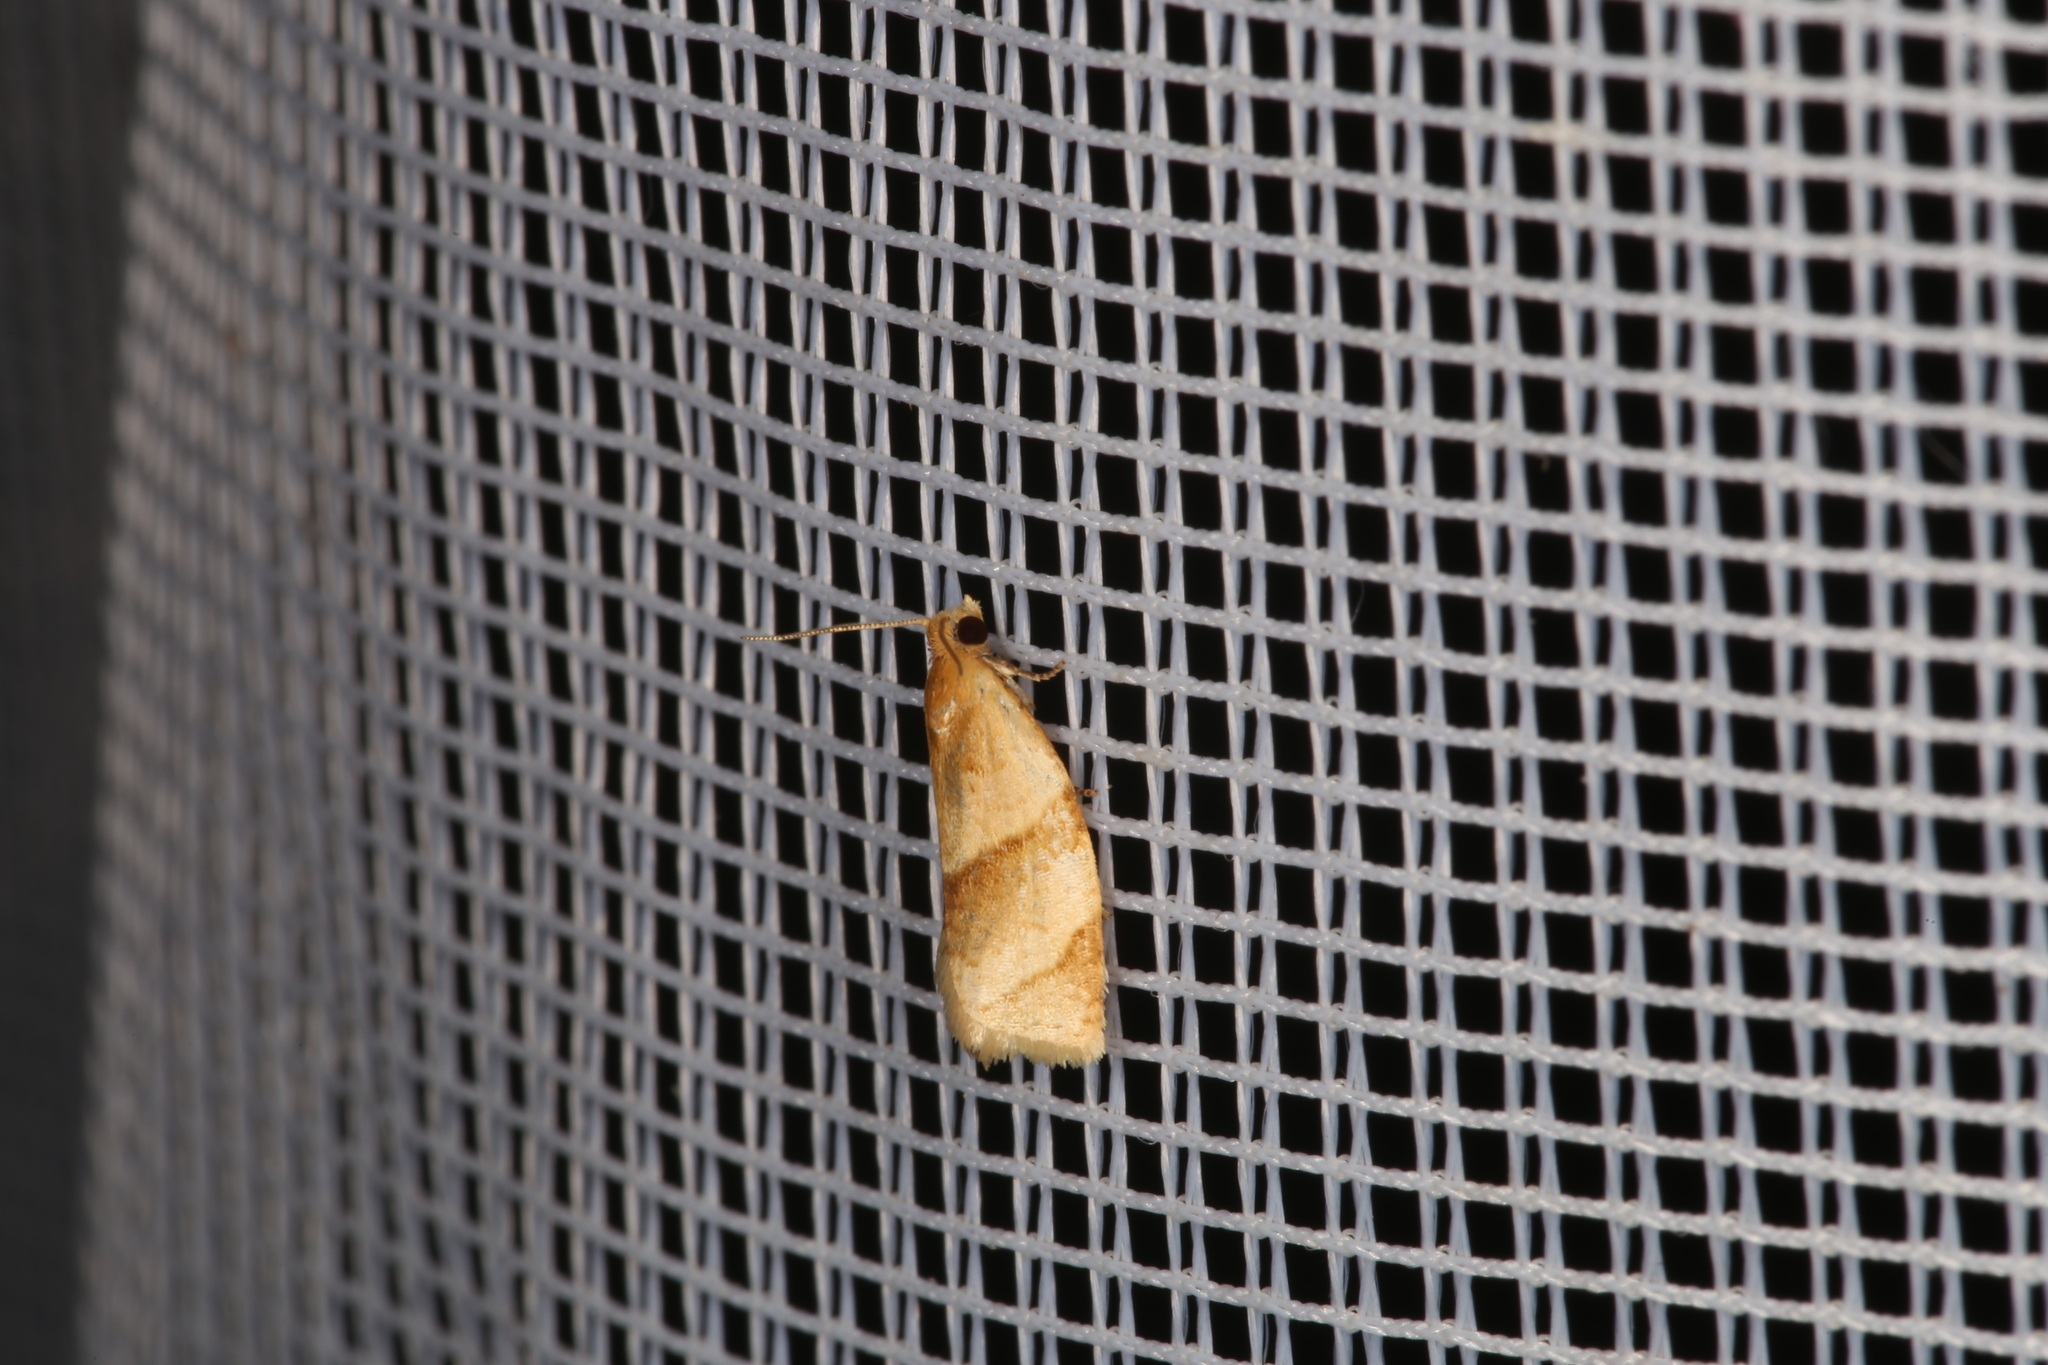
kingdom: Animalia
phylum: Arthropoda
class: Insecta
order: Lepidoptera
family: Tortricidae
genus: Clepsis
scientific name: Clepsis rurinana
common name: Pale twist
